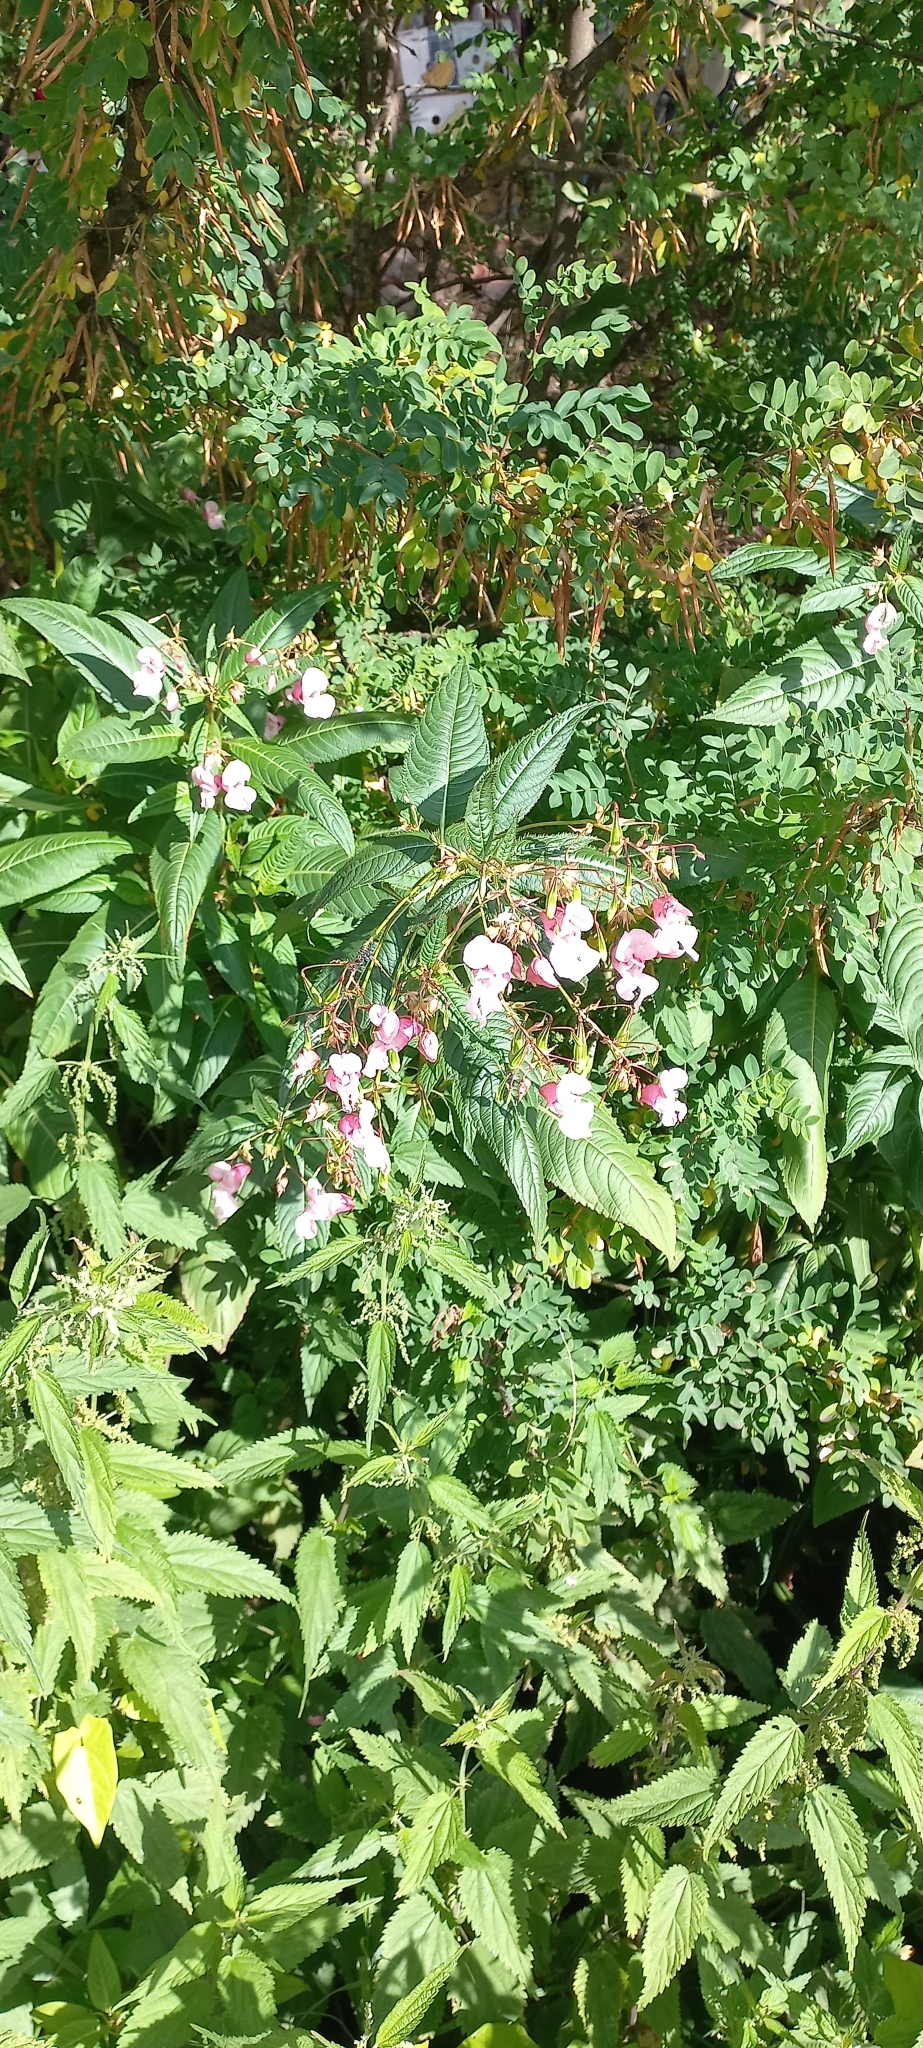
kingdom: Plantae
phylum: Tracheophyta
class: Magnoliopsida
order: Ericales
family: Balsaminaceae
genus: Impatiens
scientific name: Impatiens glandulifera
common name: Himalayan balsam
